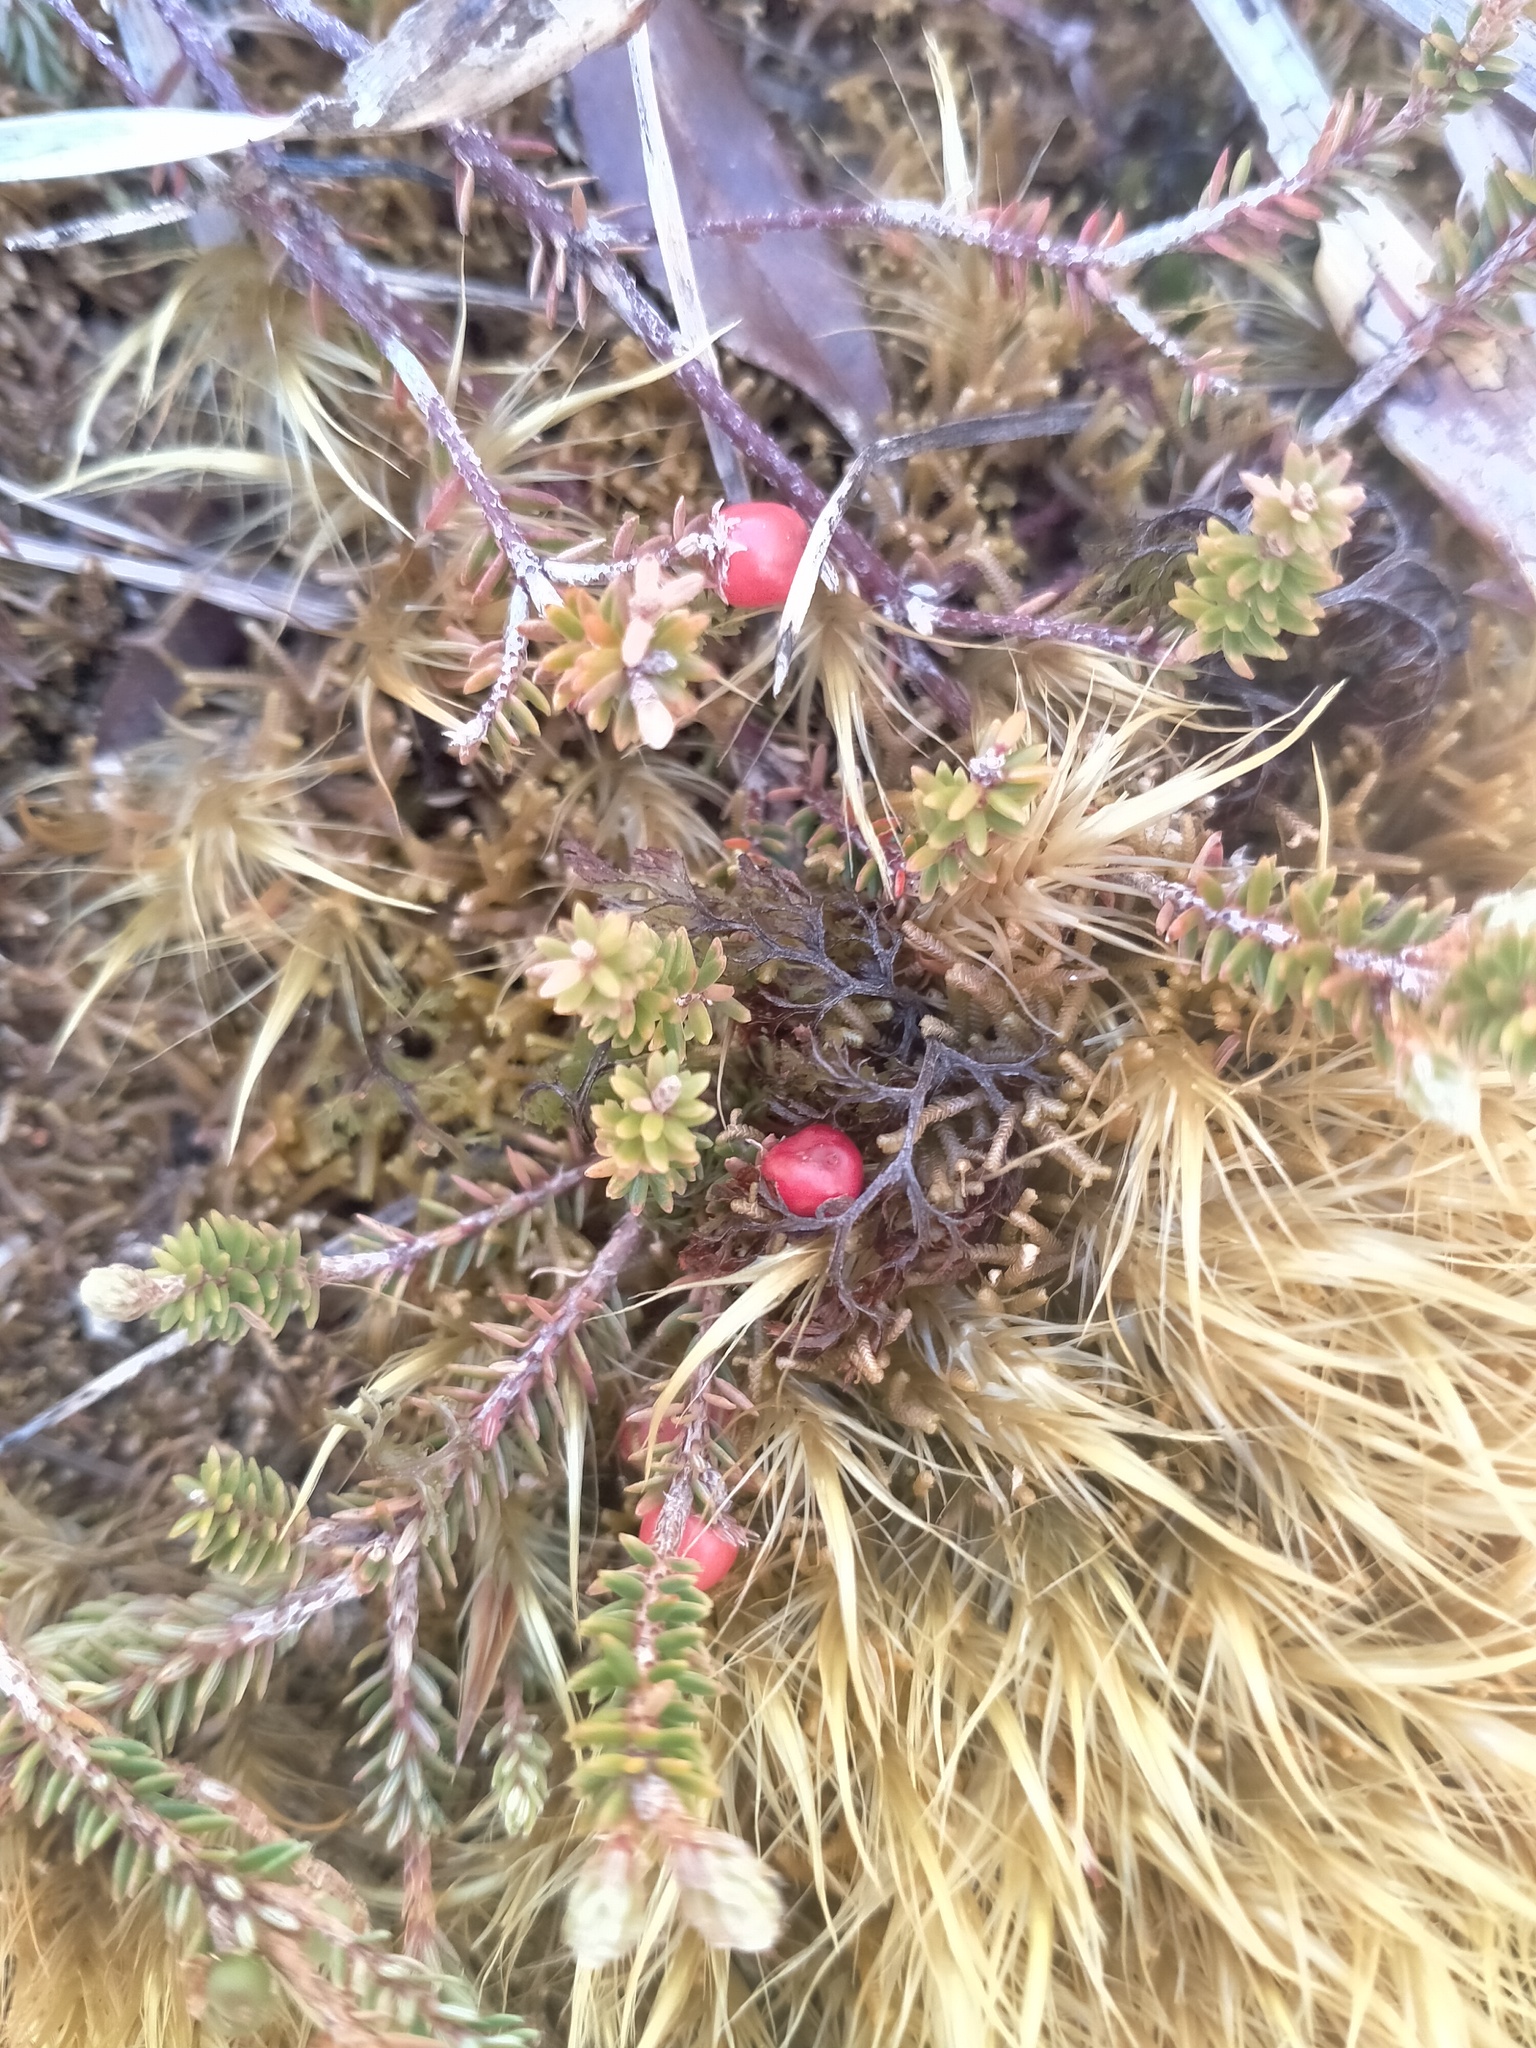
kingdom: Plantae
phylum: Tracheophyta
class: Magnoliopsida
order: Ericales
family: Ericaceae
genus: Androstoma
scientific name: Androstoma empetrifolia
